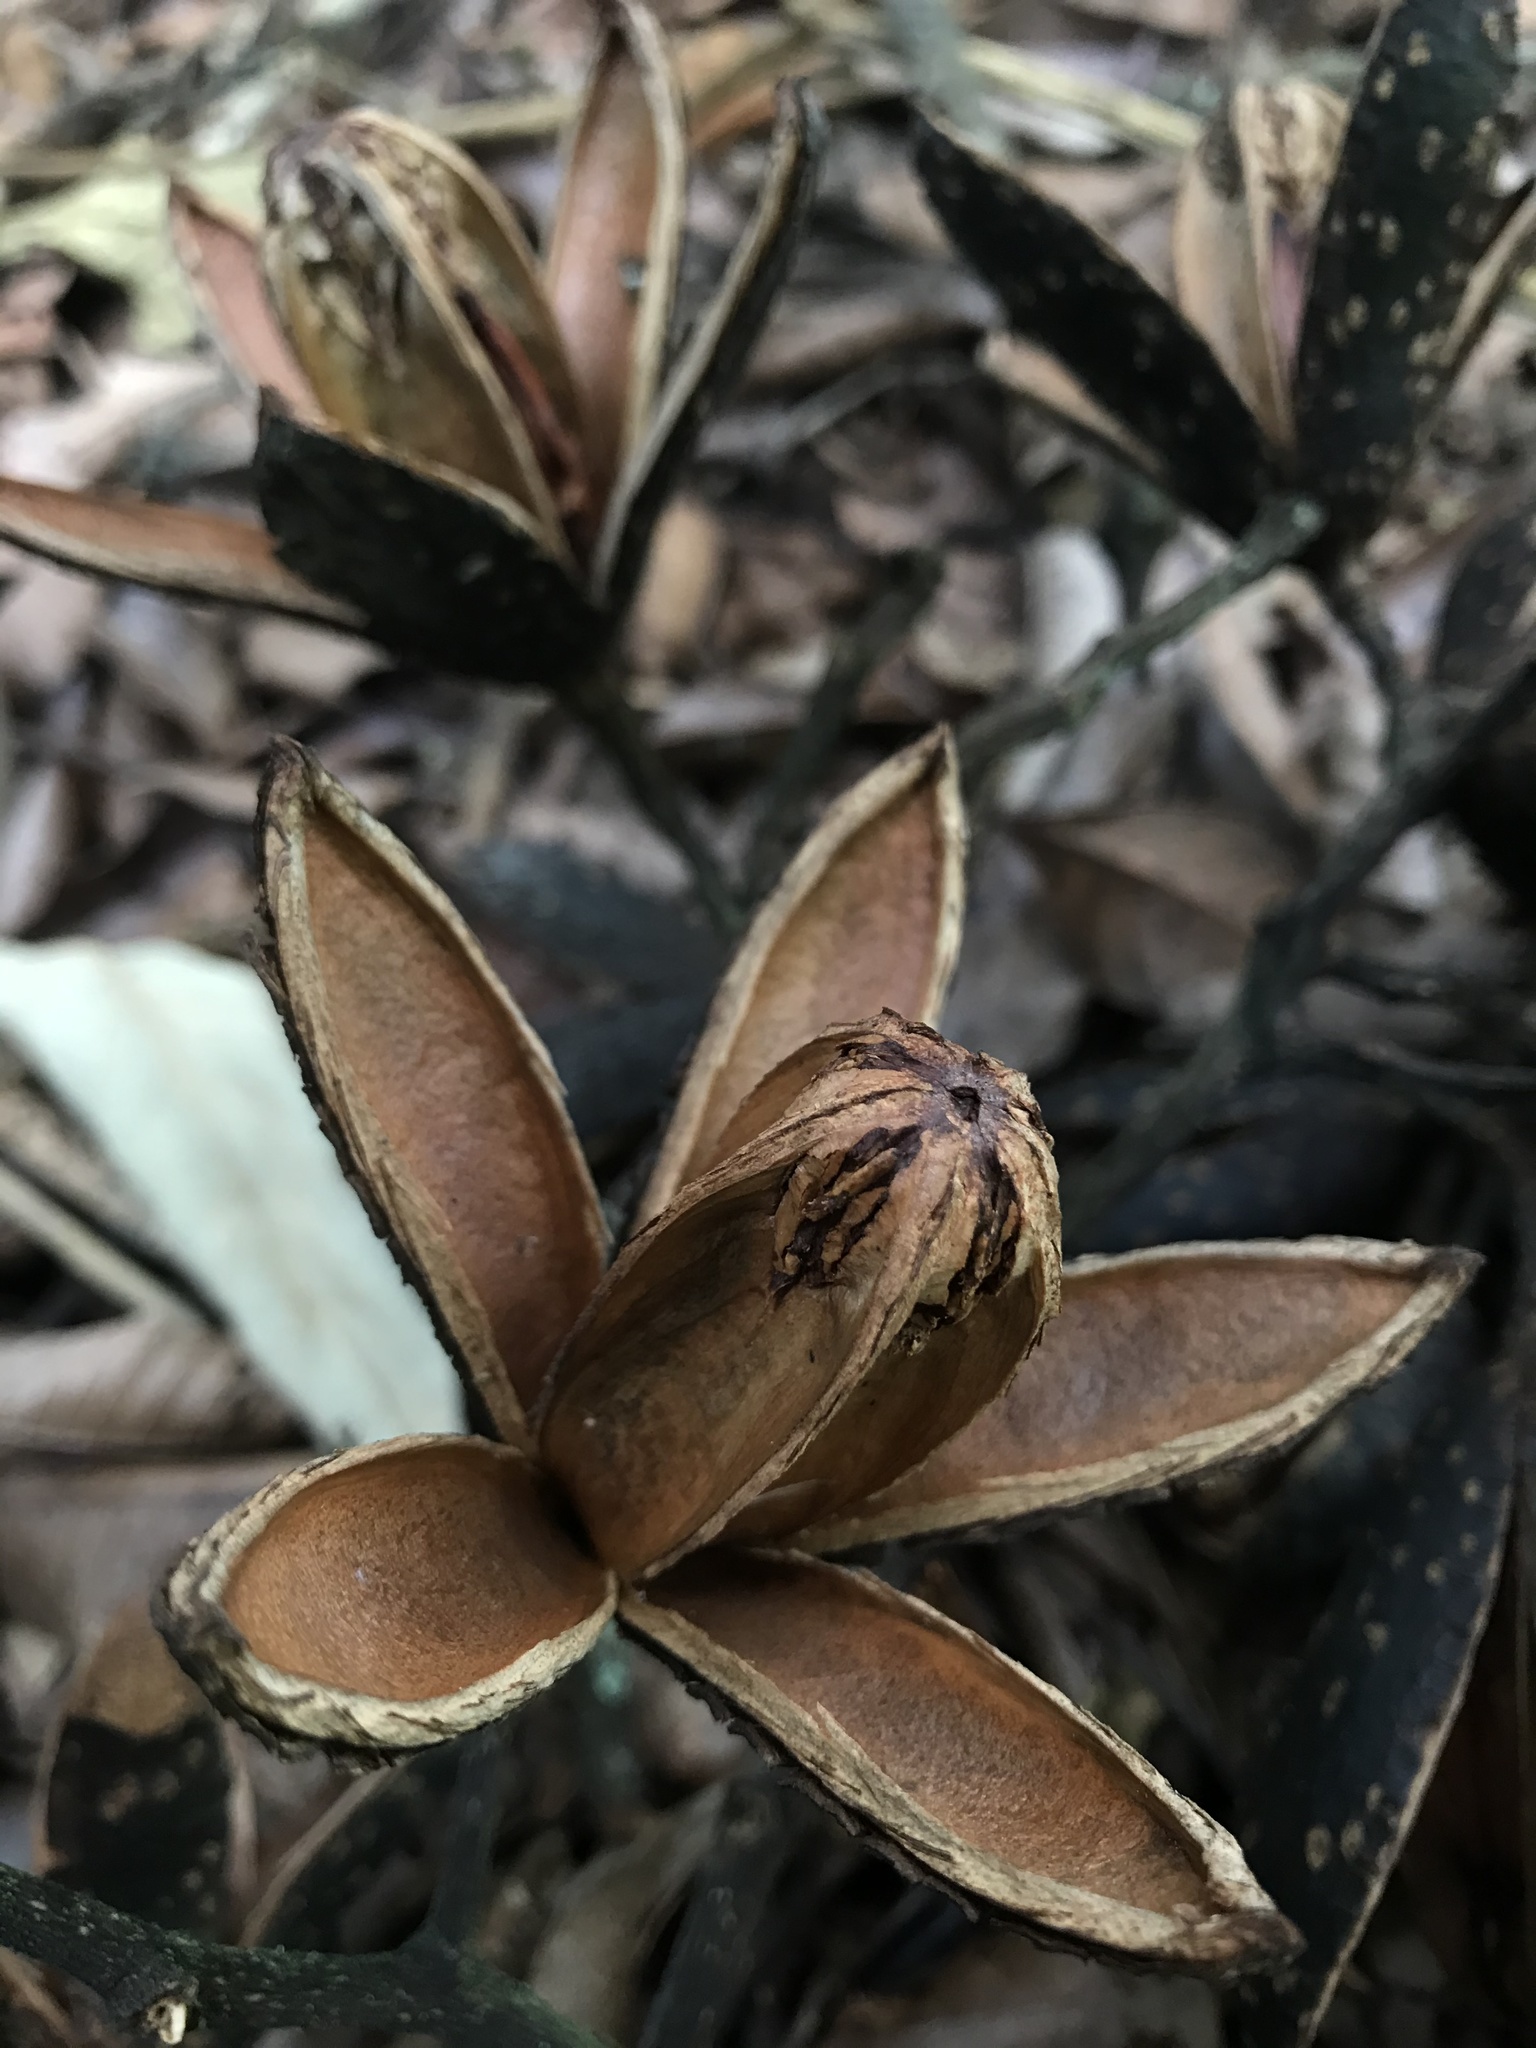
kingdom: Plantae
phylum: Tracheophyta
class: Magnoliopsida
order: Sapindales
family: Meliaceae
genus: Cedrela
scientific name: Cedrela montana
